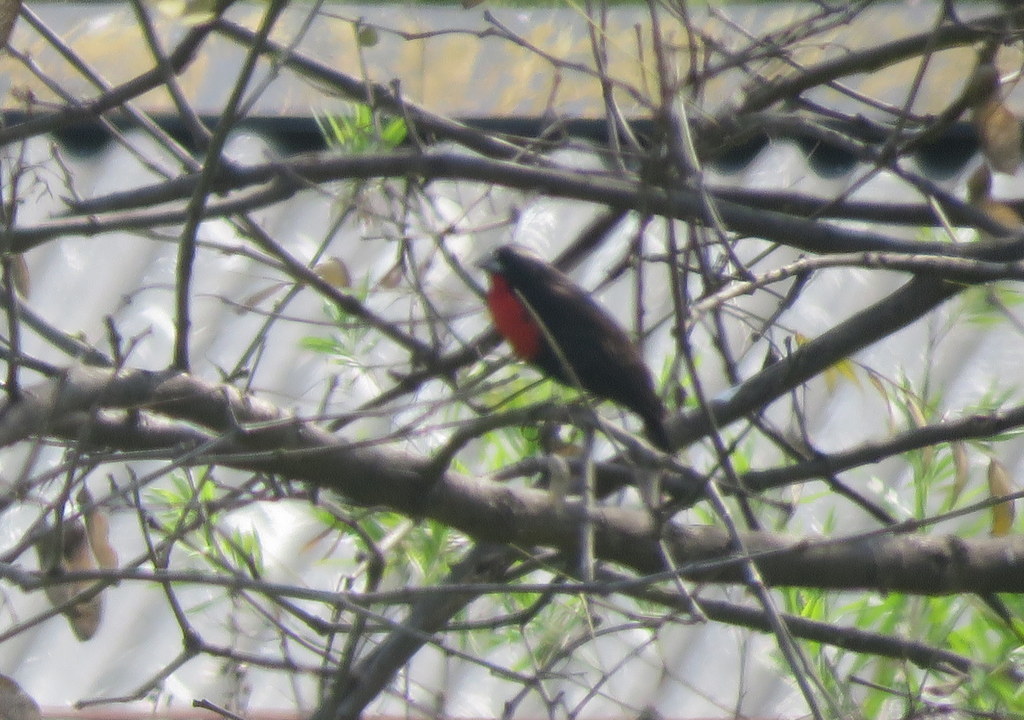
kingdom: Animalia
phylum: Chordata
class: Aves
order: Passeriformes
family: Icteridae
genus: Sturnella
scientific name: Sturnella superciliaris
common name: White-browed blackbird
